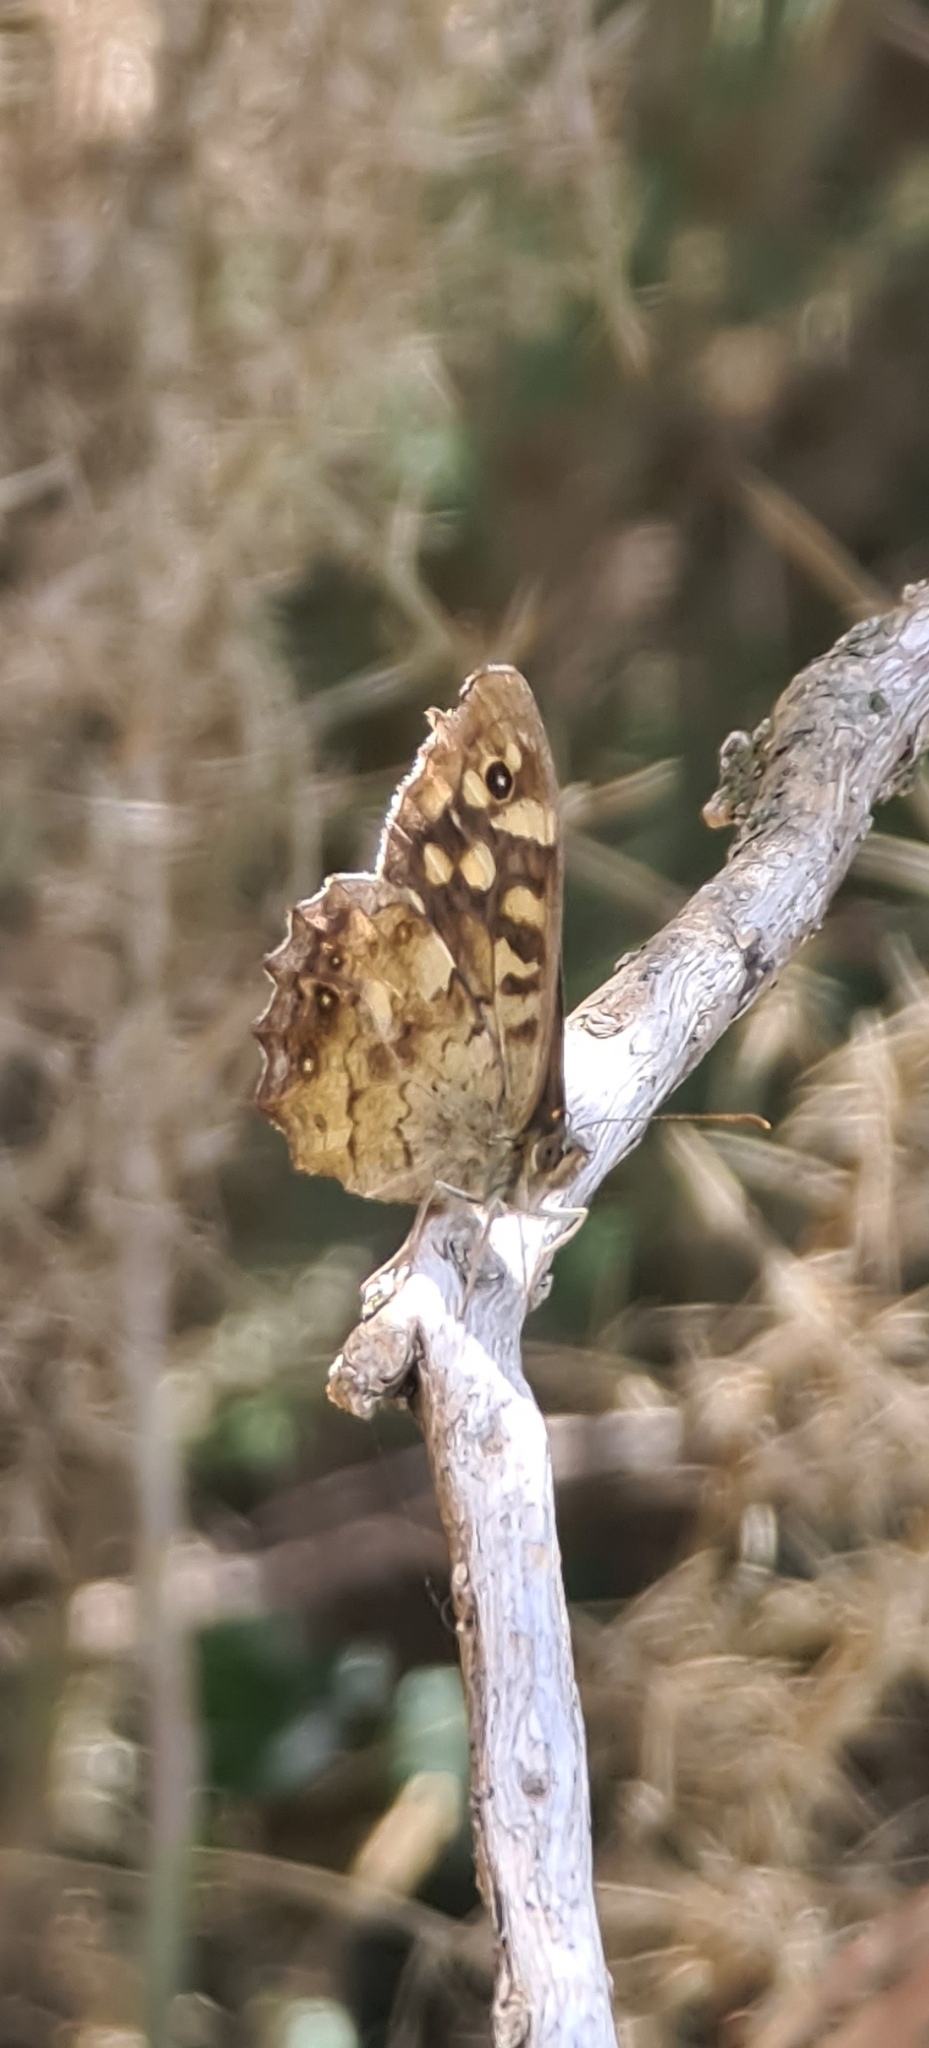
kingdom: Animalia
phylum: Arthropoda
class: Insecta
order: Lepidoptera
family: Nymphalidae
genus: Pararge
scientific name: Pararge aegeria
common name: Speckled wood
